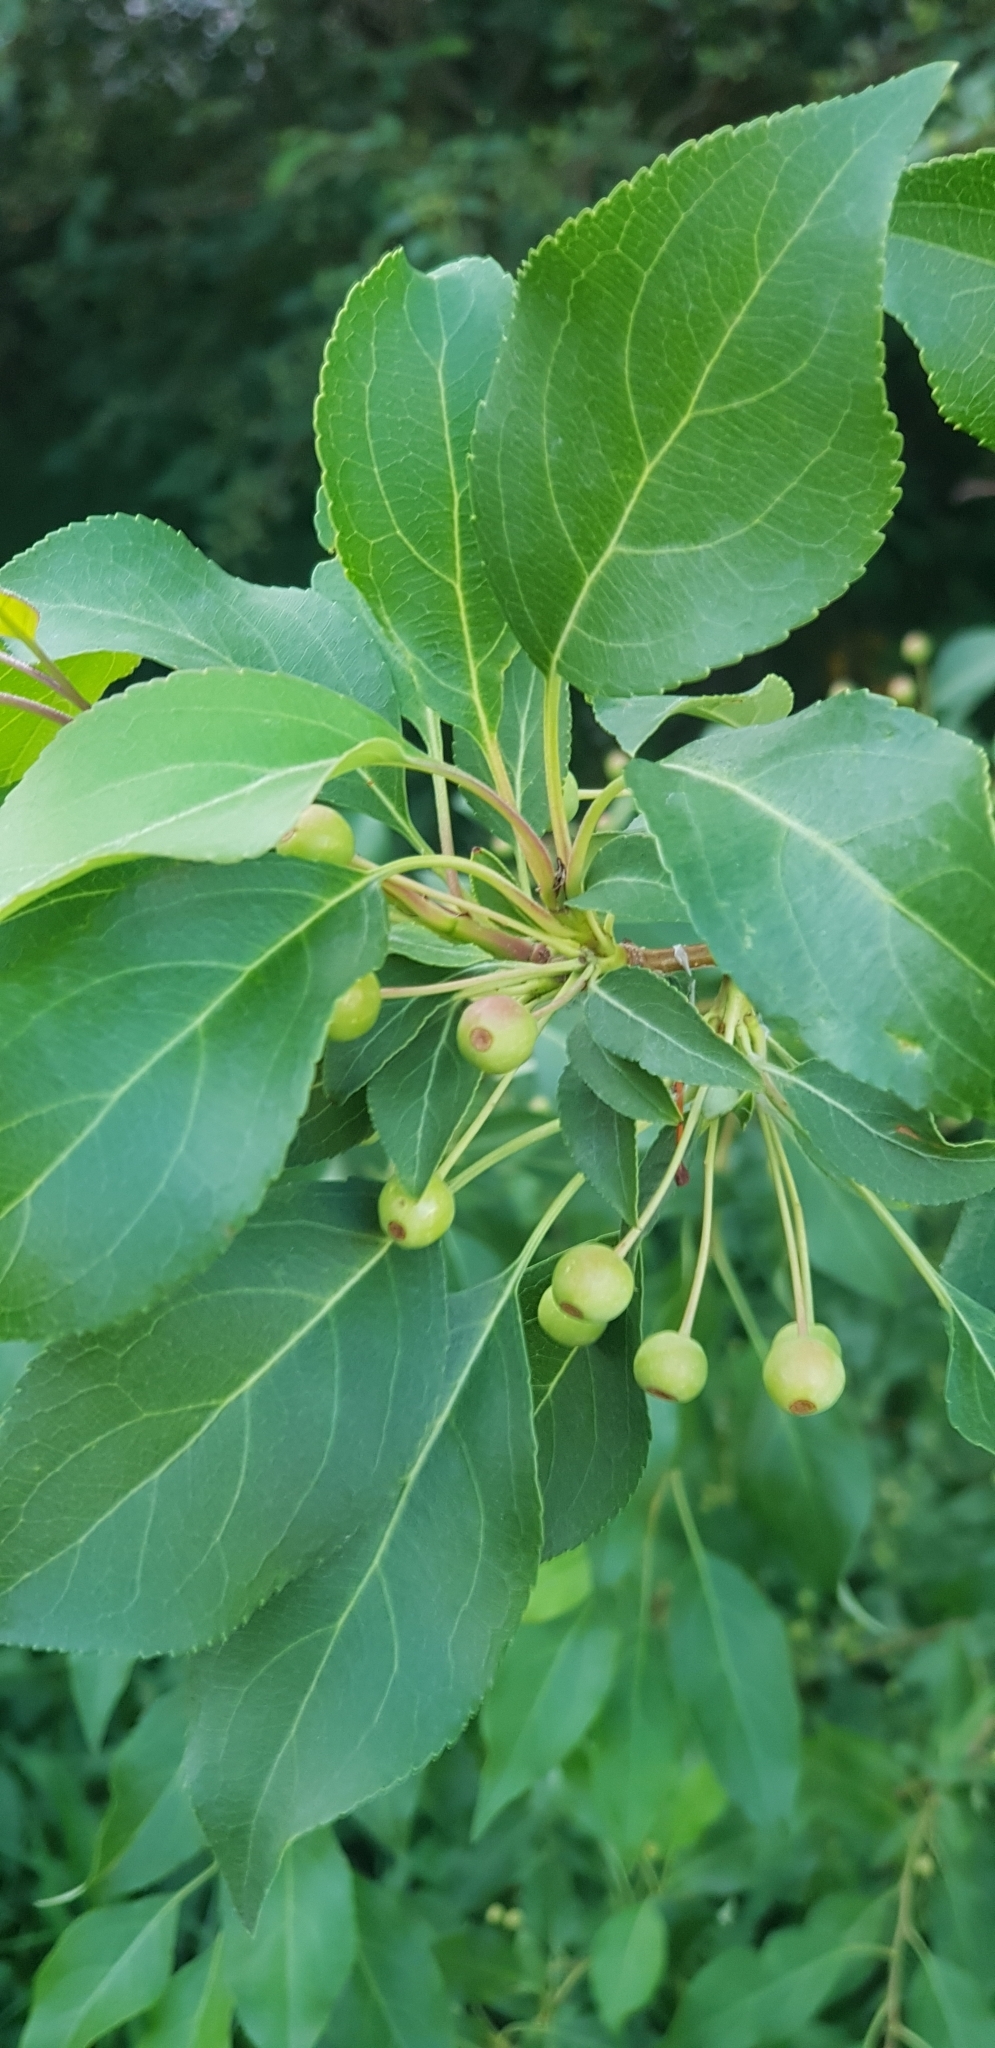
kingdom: Plantae
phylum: Tracheophyta
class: Magnoliopsida
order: Rosales
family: Rosaceae
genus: Malus
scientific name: Malus baccata
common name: Siberian crab
